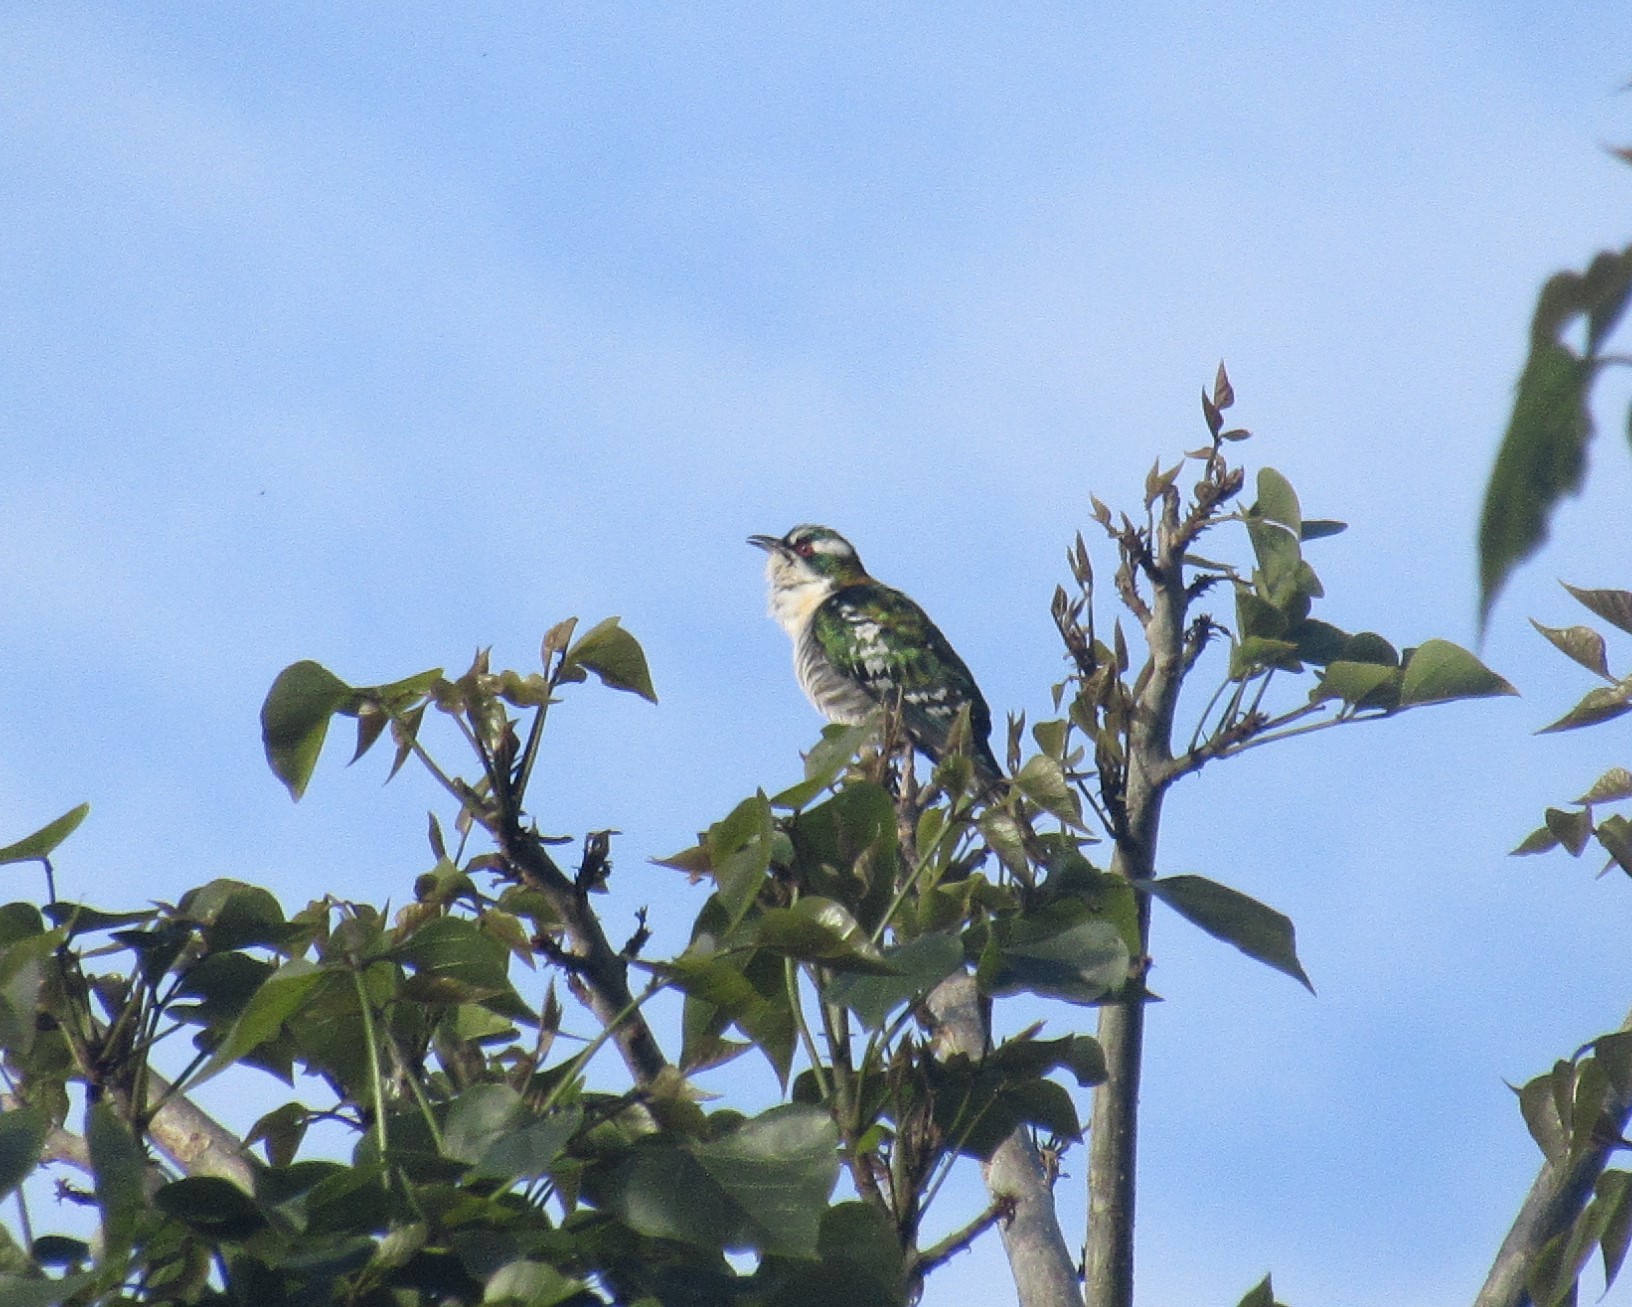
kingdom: Animalia
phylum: Chordata
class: Aves
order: Cuculiformes
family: Cuculidae
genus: Chrysococcyx
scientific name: Chrysococcyx caprius
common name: Diederik cuckoo
